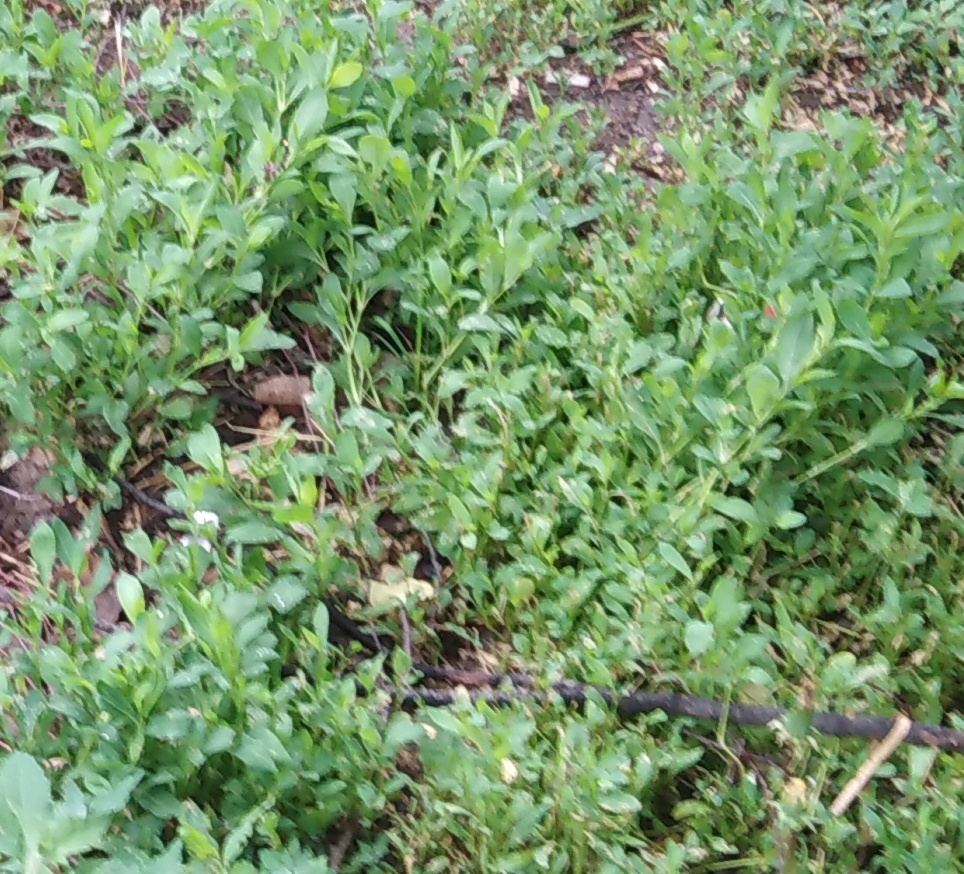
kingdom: Plantae
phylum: Tracheophyta
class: Magnoliopsida
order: Caryophyllales
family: Polygonaceae
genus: Polygonum
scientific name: Polygonum
